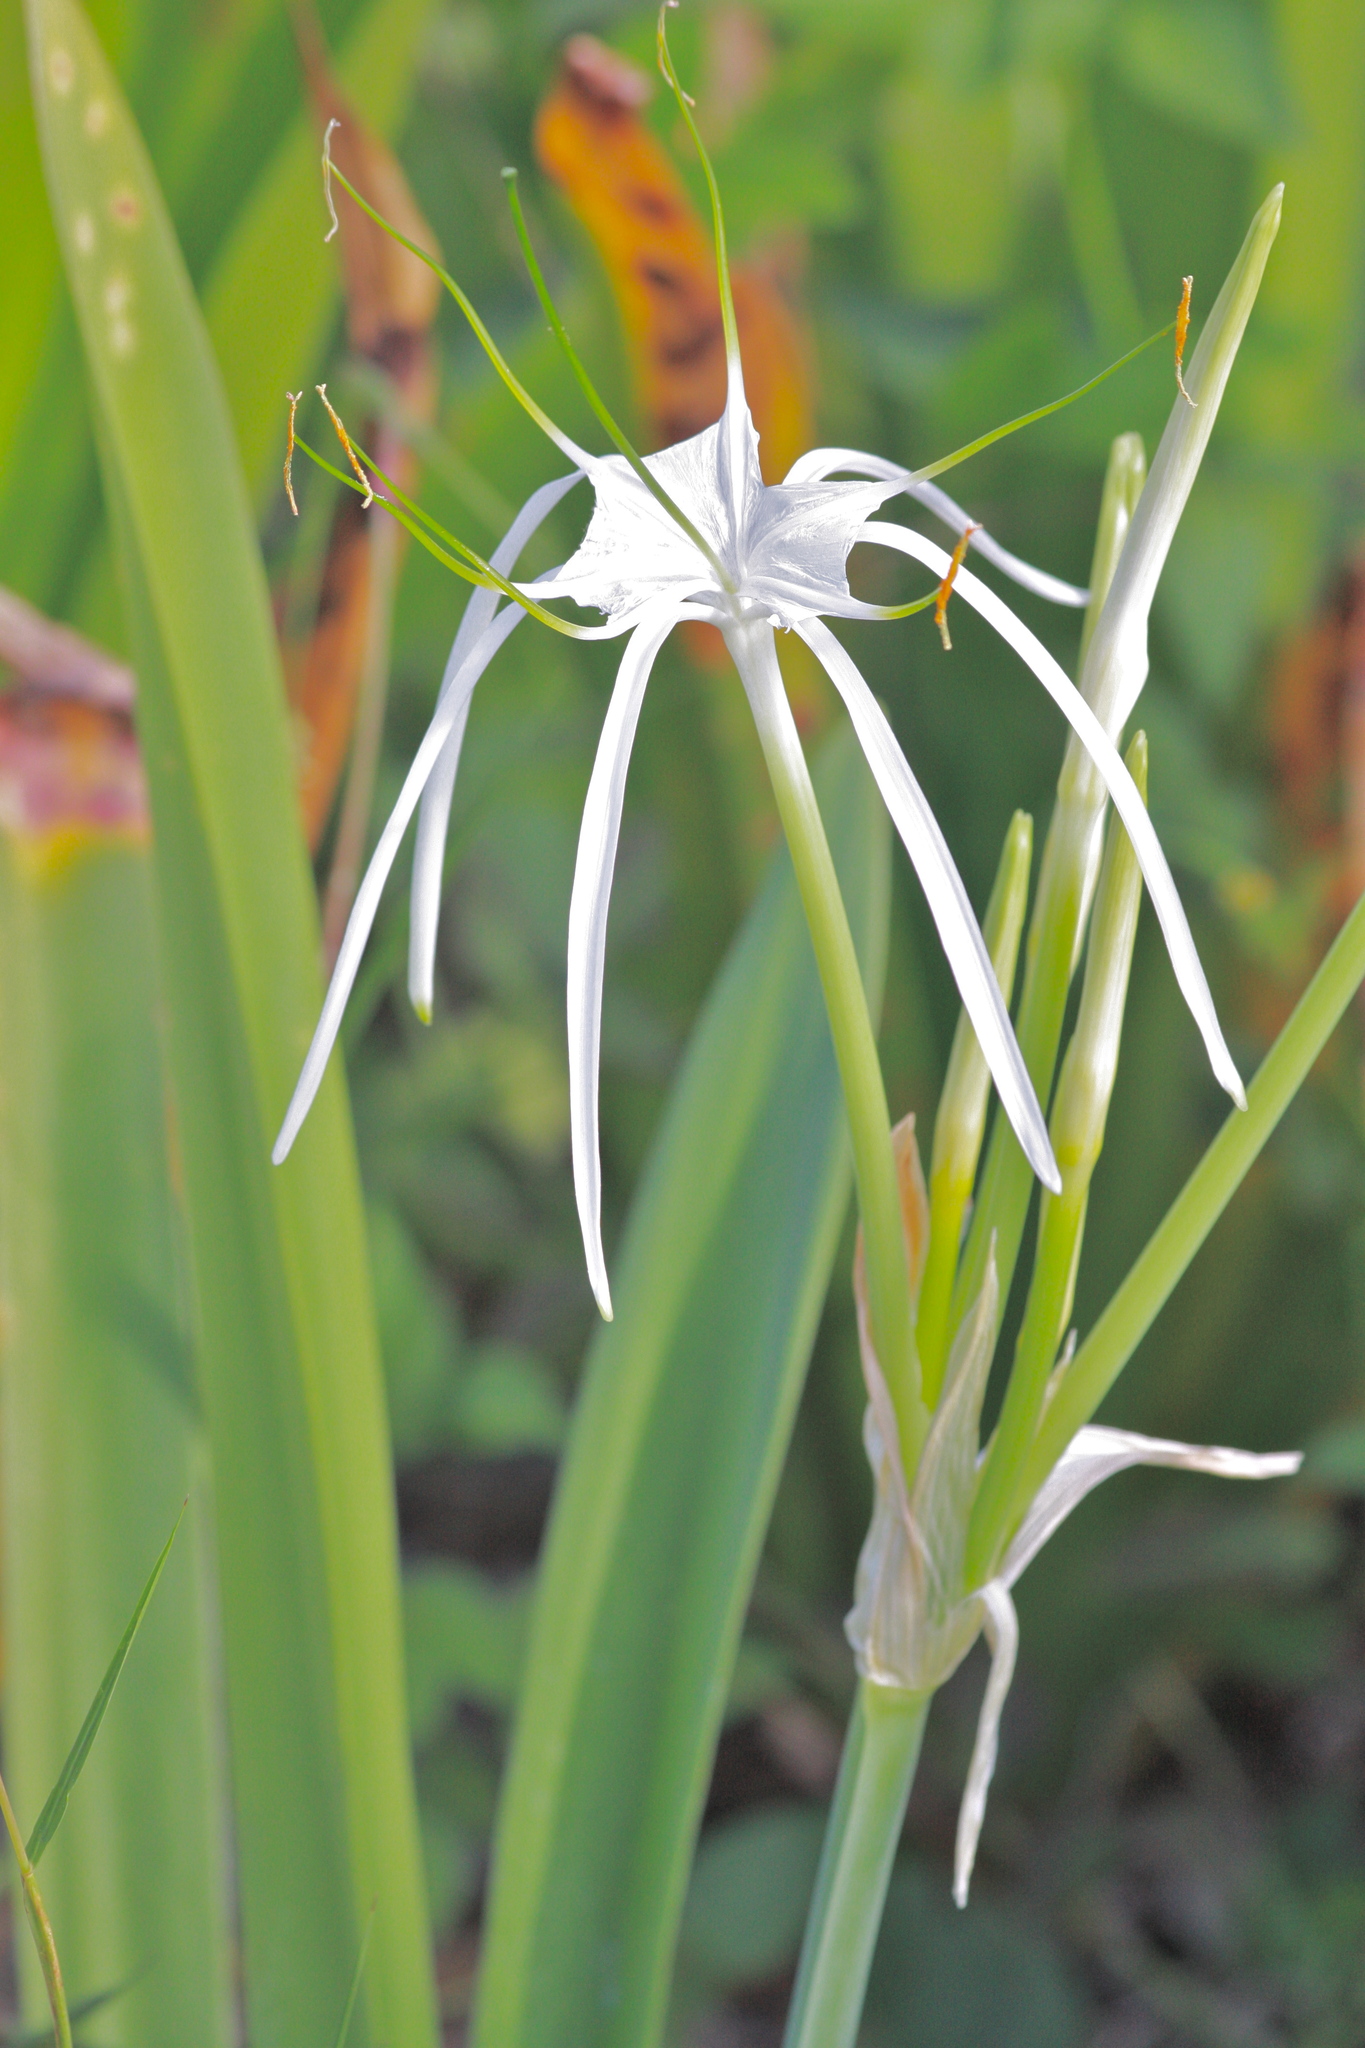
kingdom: Plantae
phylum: Tracheophyta
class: Liliopsida
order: Asparagales
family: Amaryllidaceae
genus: Hymenocallis
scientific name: Hymenocallis latifolia
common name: Cayman islands spider-lily
